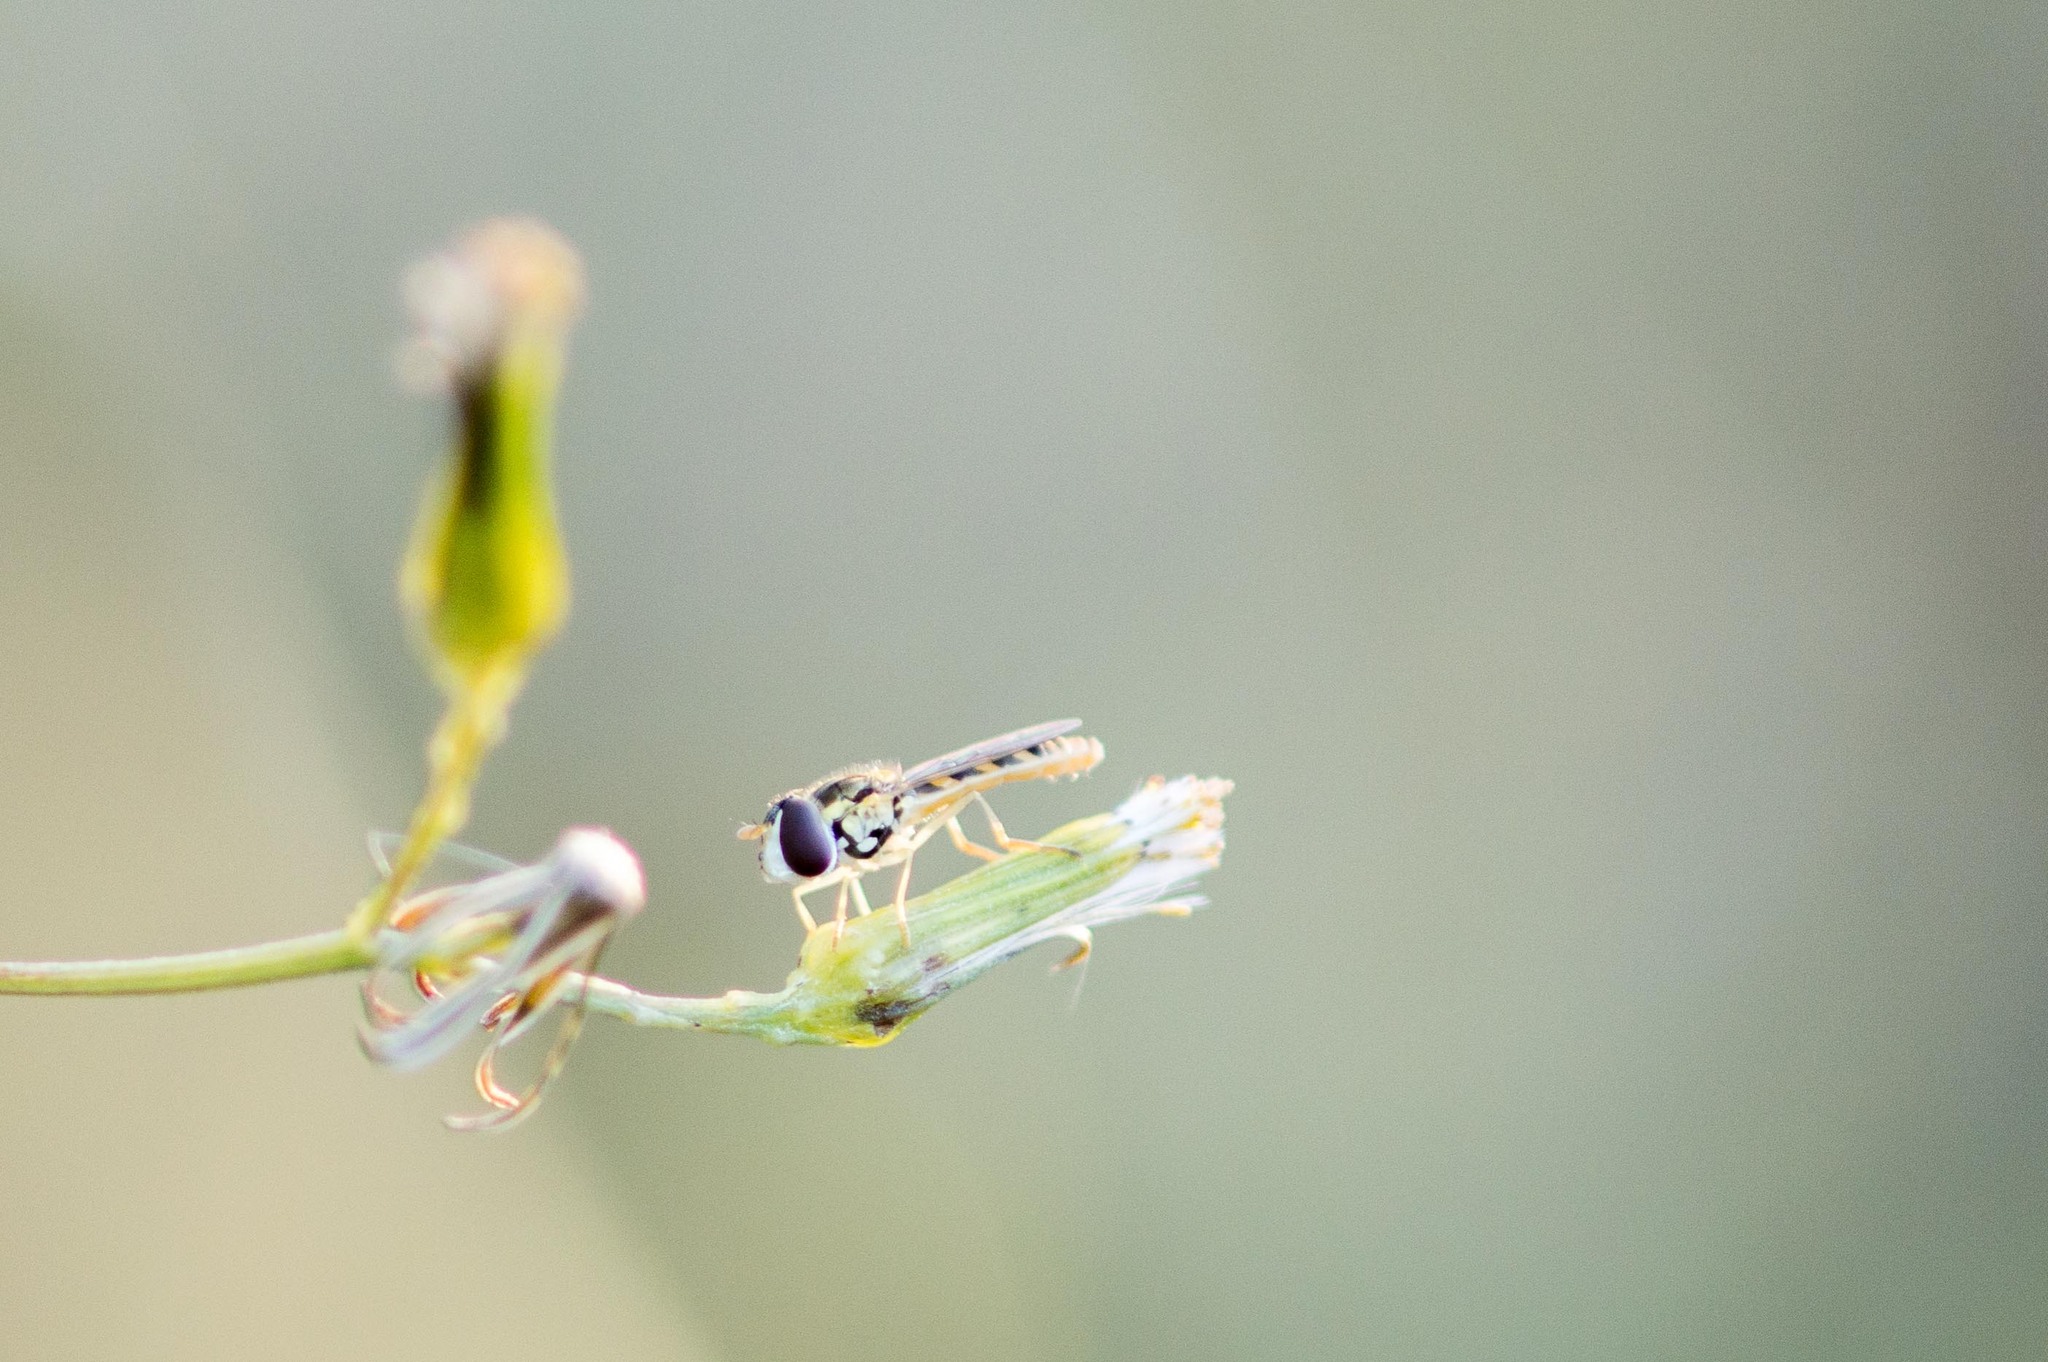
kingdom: Animalia
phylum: Arthropoda
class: Insecta
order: Diptera
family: Syrphidae
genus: Sphaerophoria
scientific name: Sphaerophoria contigua
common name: Tufted globetail
